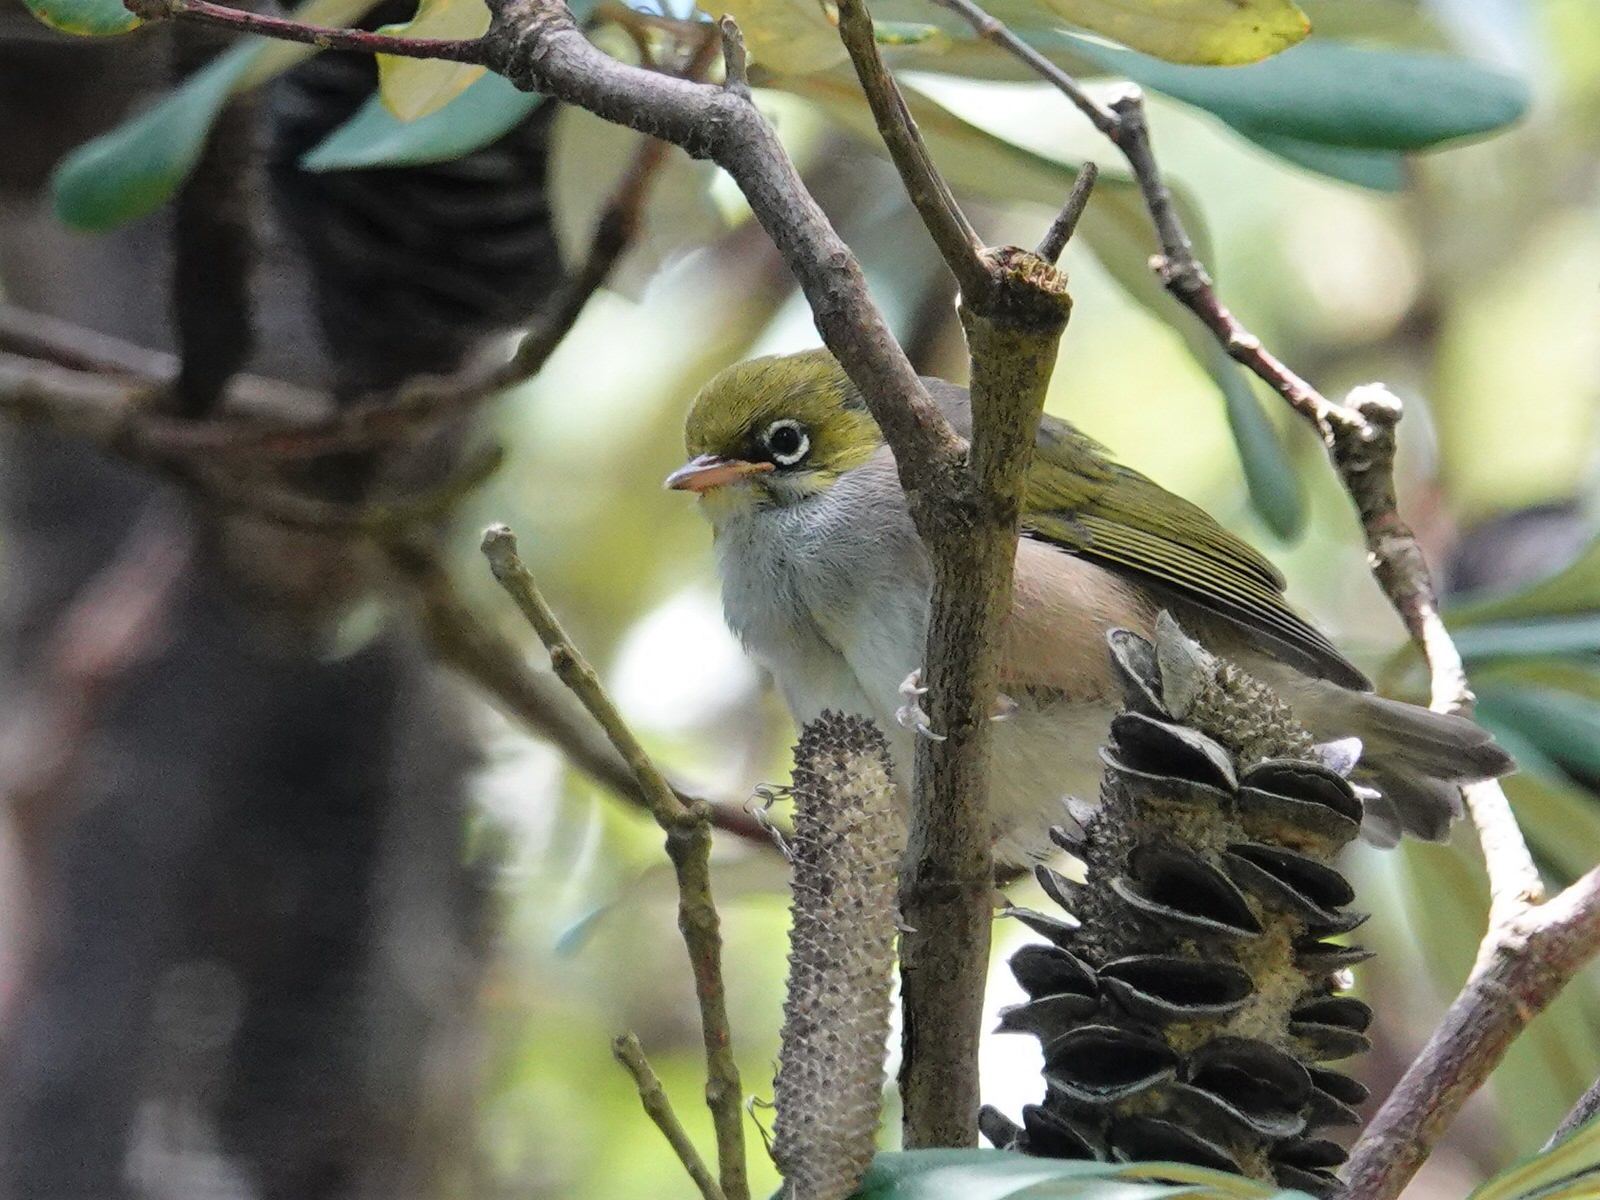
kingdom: Animalia
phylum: Chordata
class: Aves
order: Passeriformes
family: Zosteropidae
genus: Zosterops
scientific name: Zosterops lateralis
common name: Silvereye
